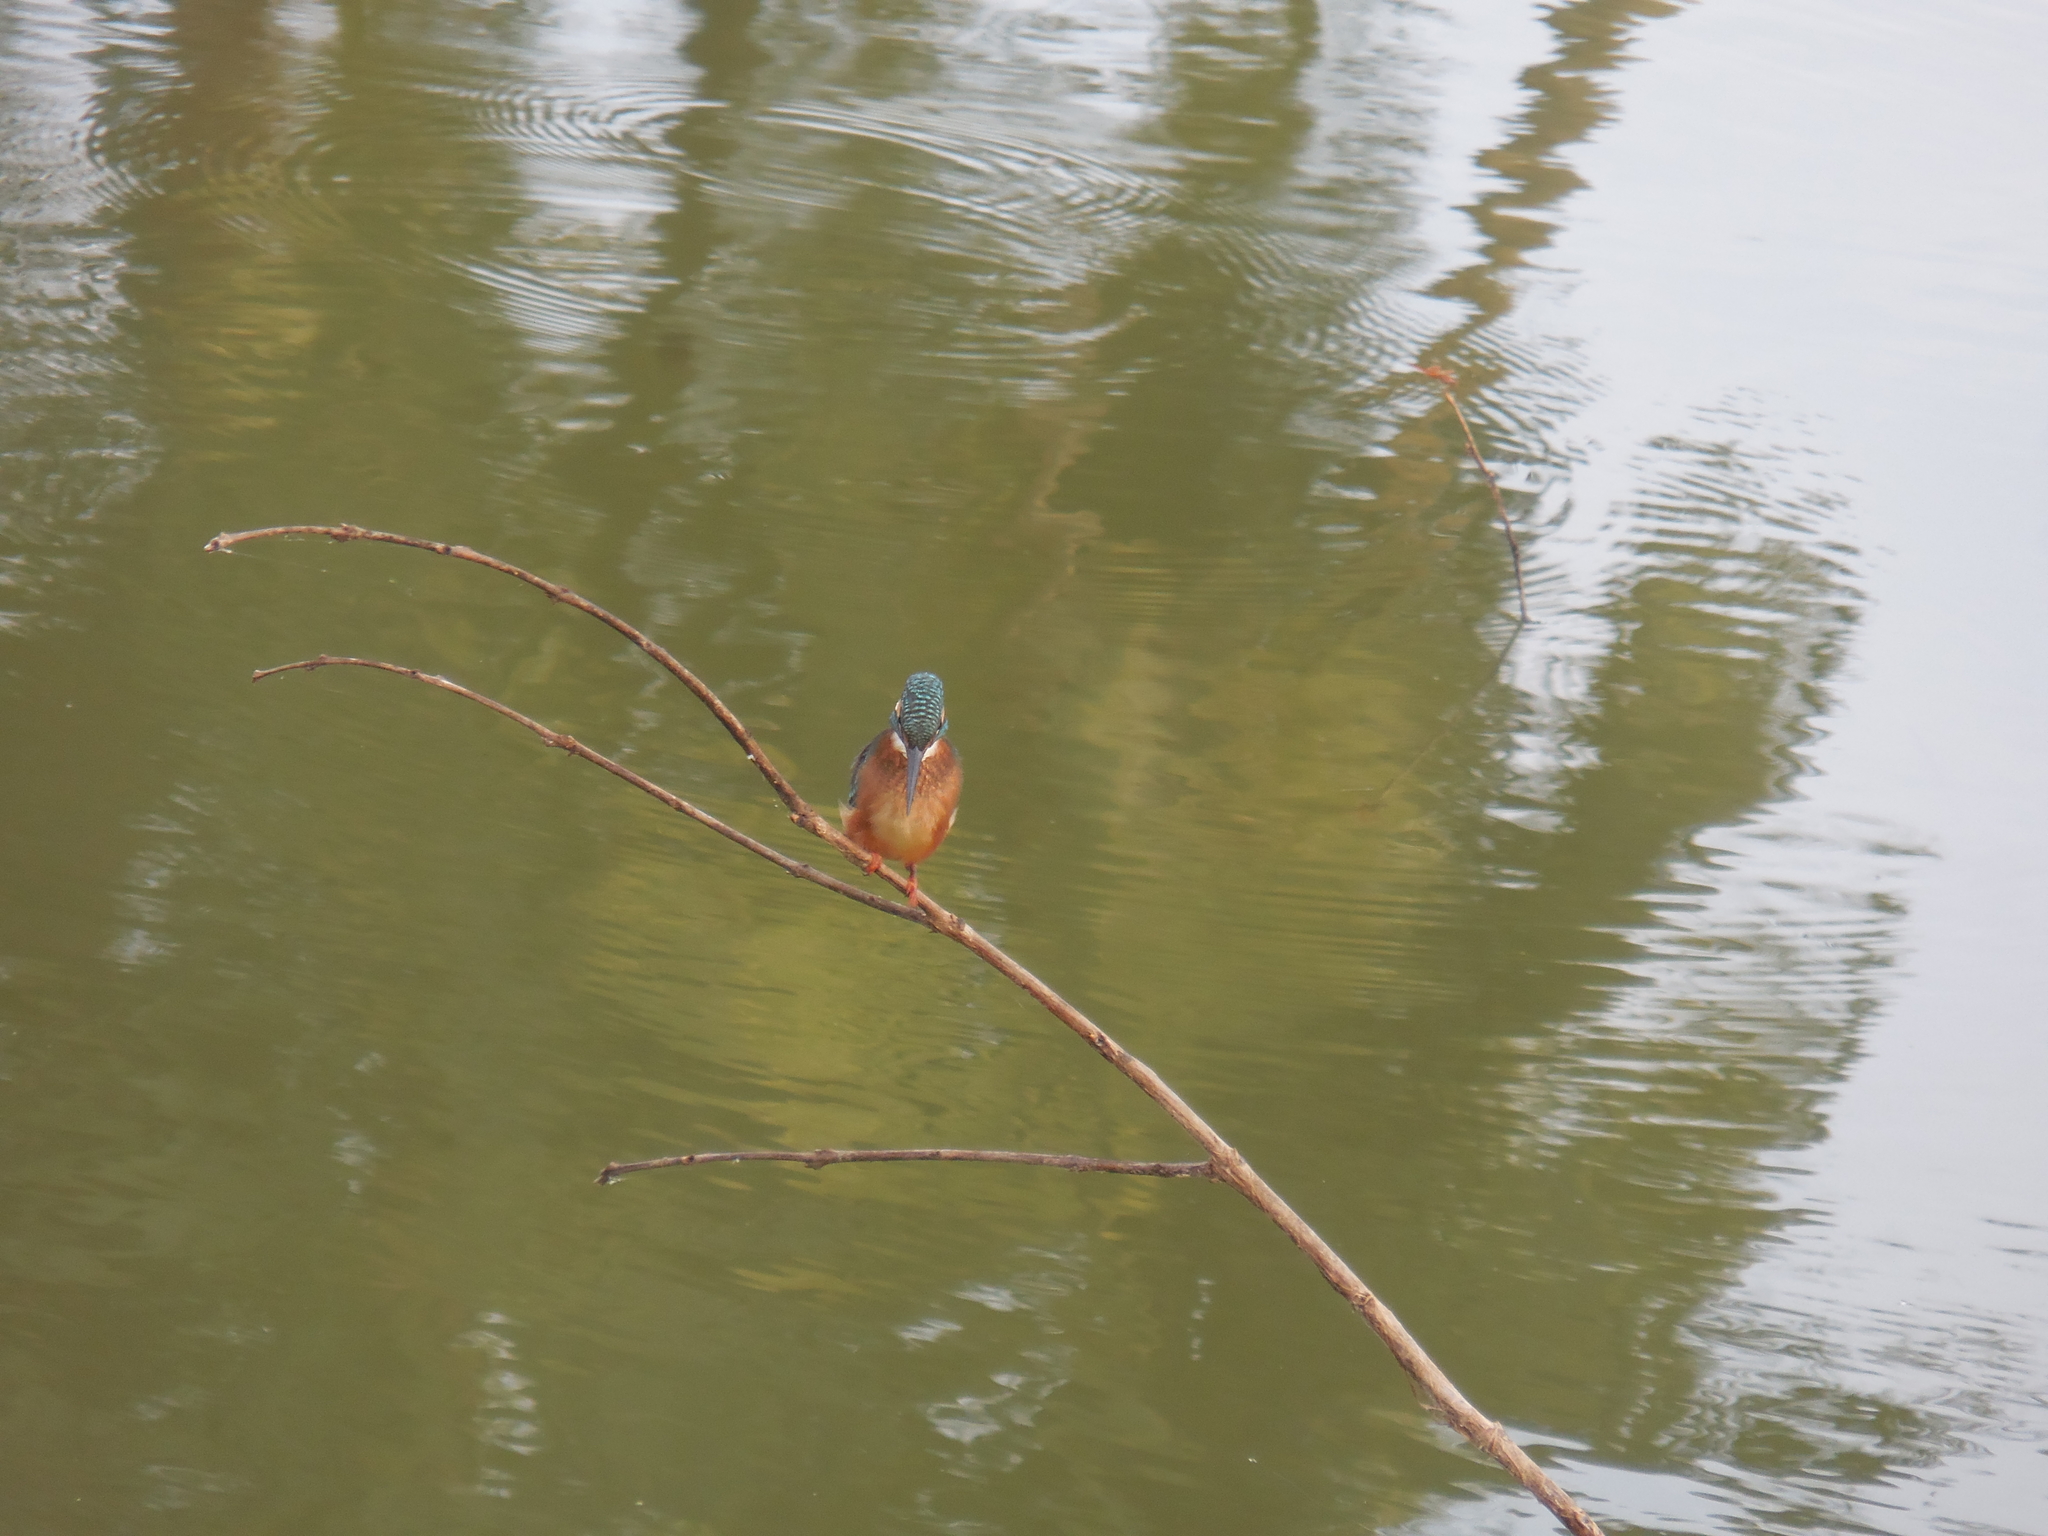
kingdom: Animalia
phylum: Chordata
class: Aves
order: Coraciiformes
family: Alcedinidae
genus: Alcedo
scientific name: Alcedo atthis
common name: Common kingfisher
